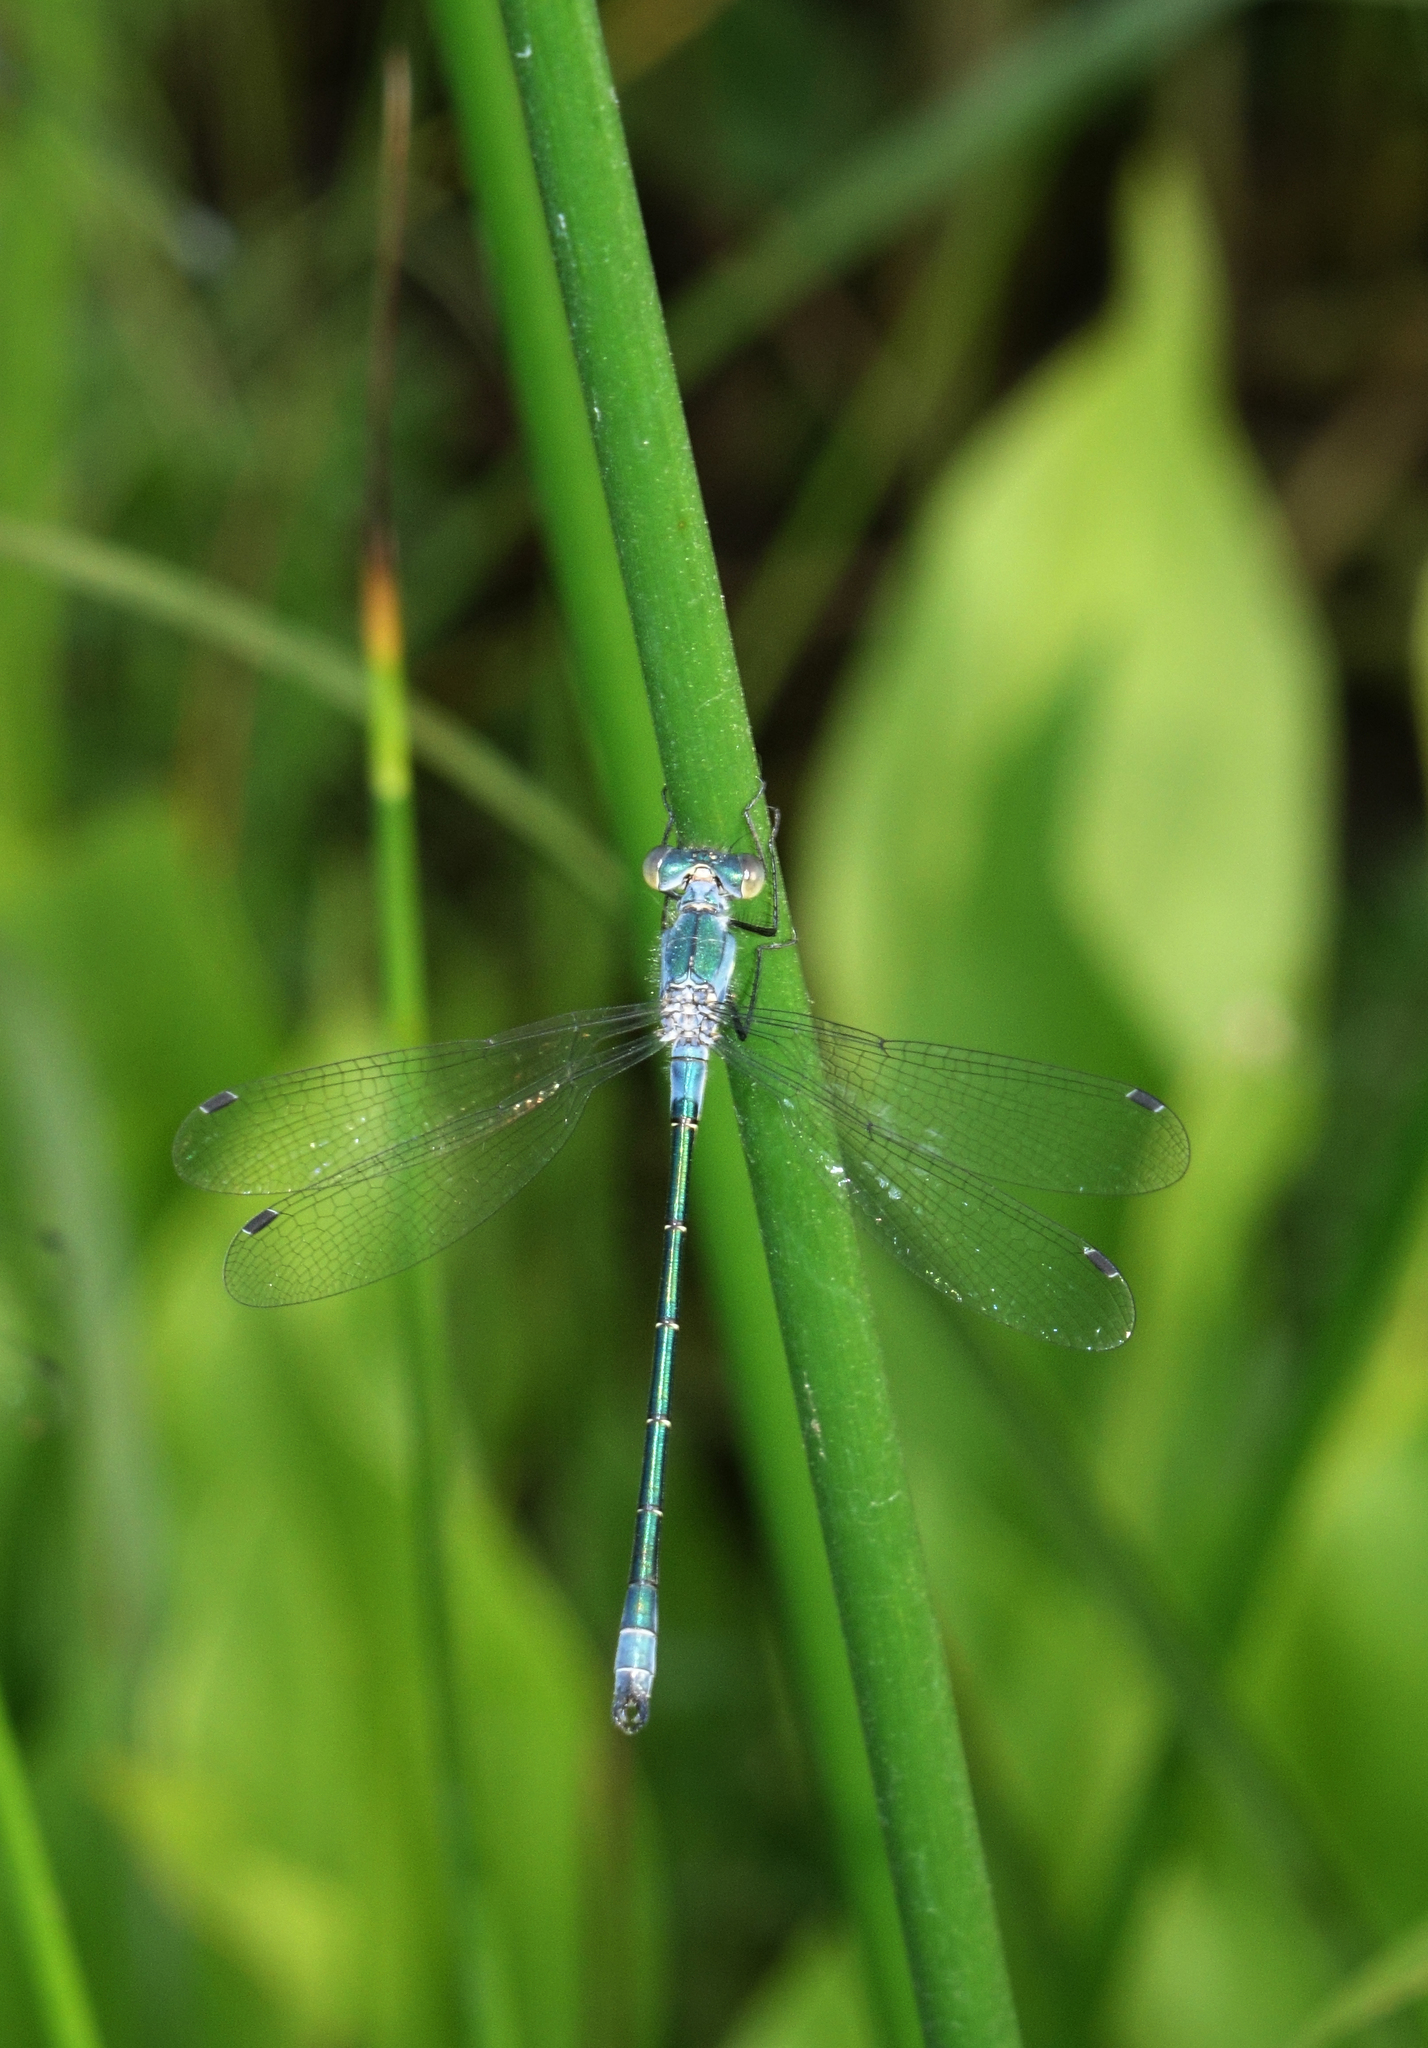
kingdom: Animalia
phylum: Arthropoda
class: Insecta
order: Odonata
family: Lestidae
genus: Lestes
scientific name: Lestes dryas
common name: Scarce emerald damselfly
